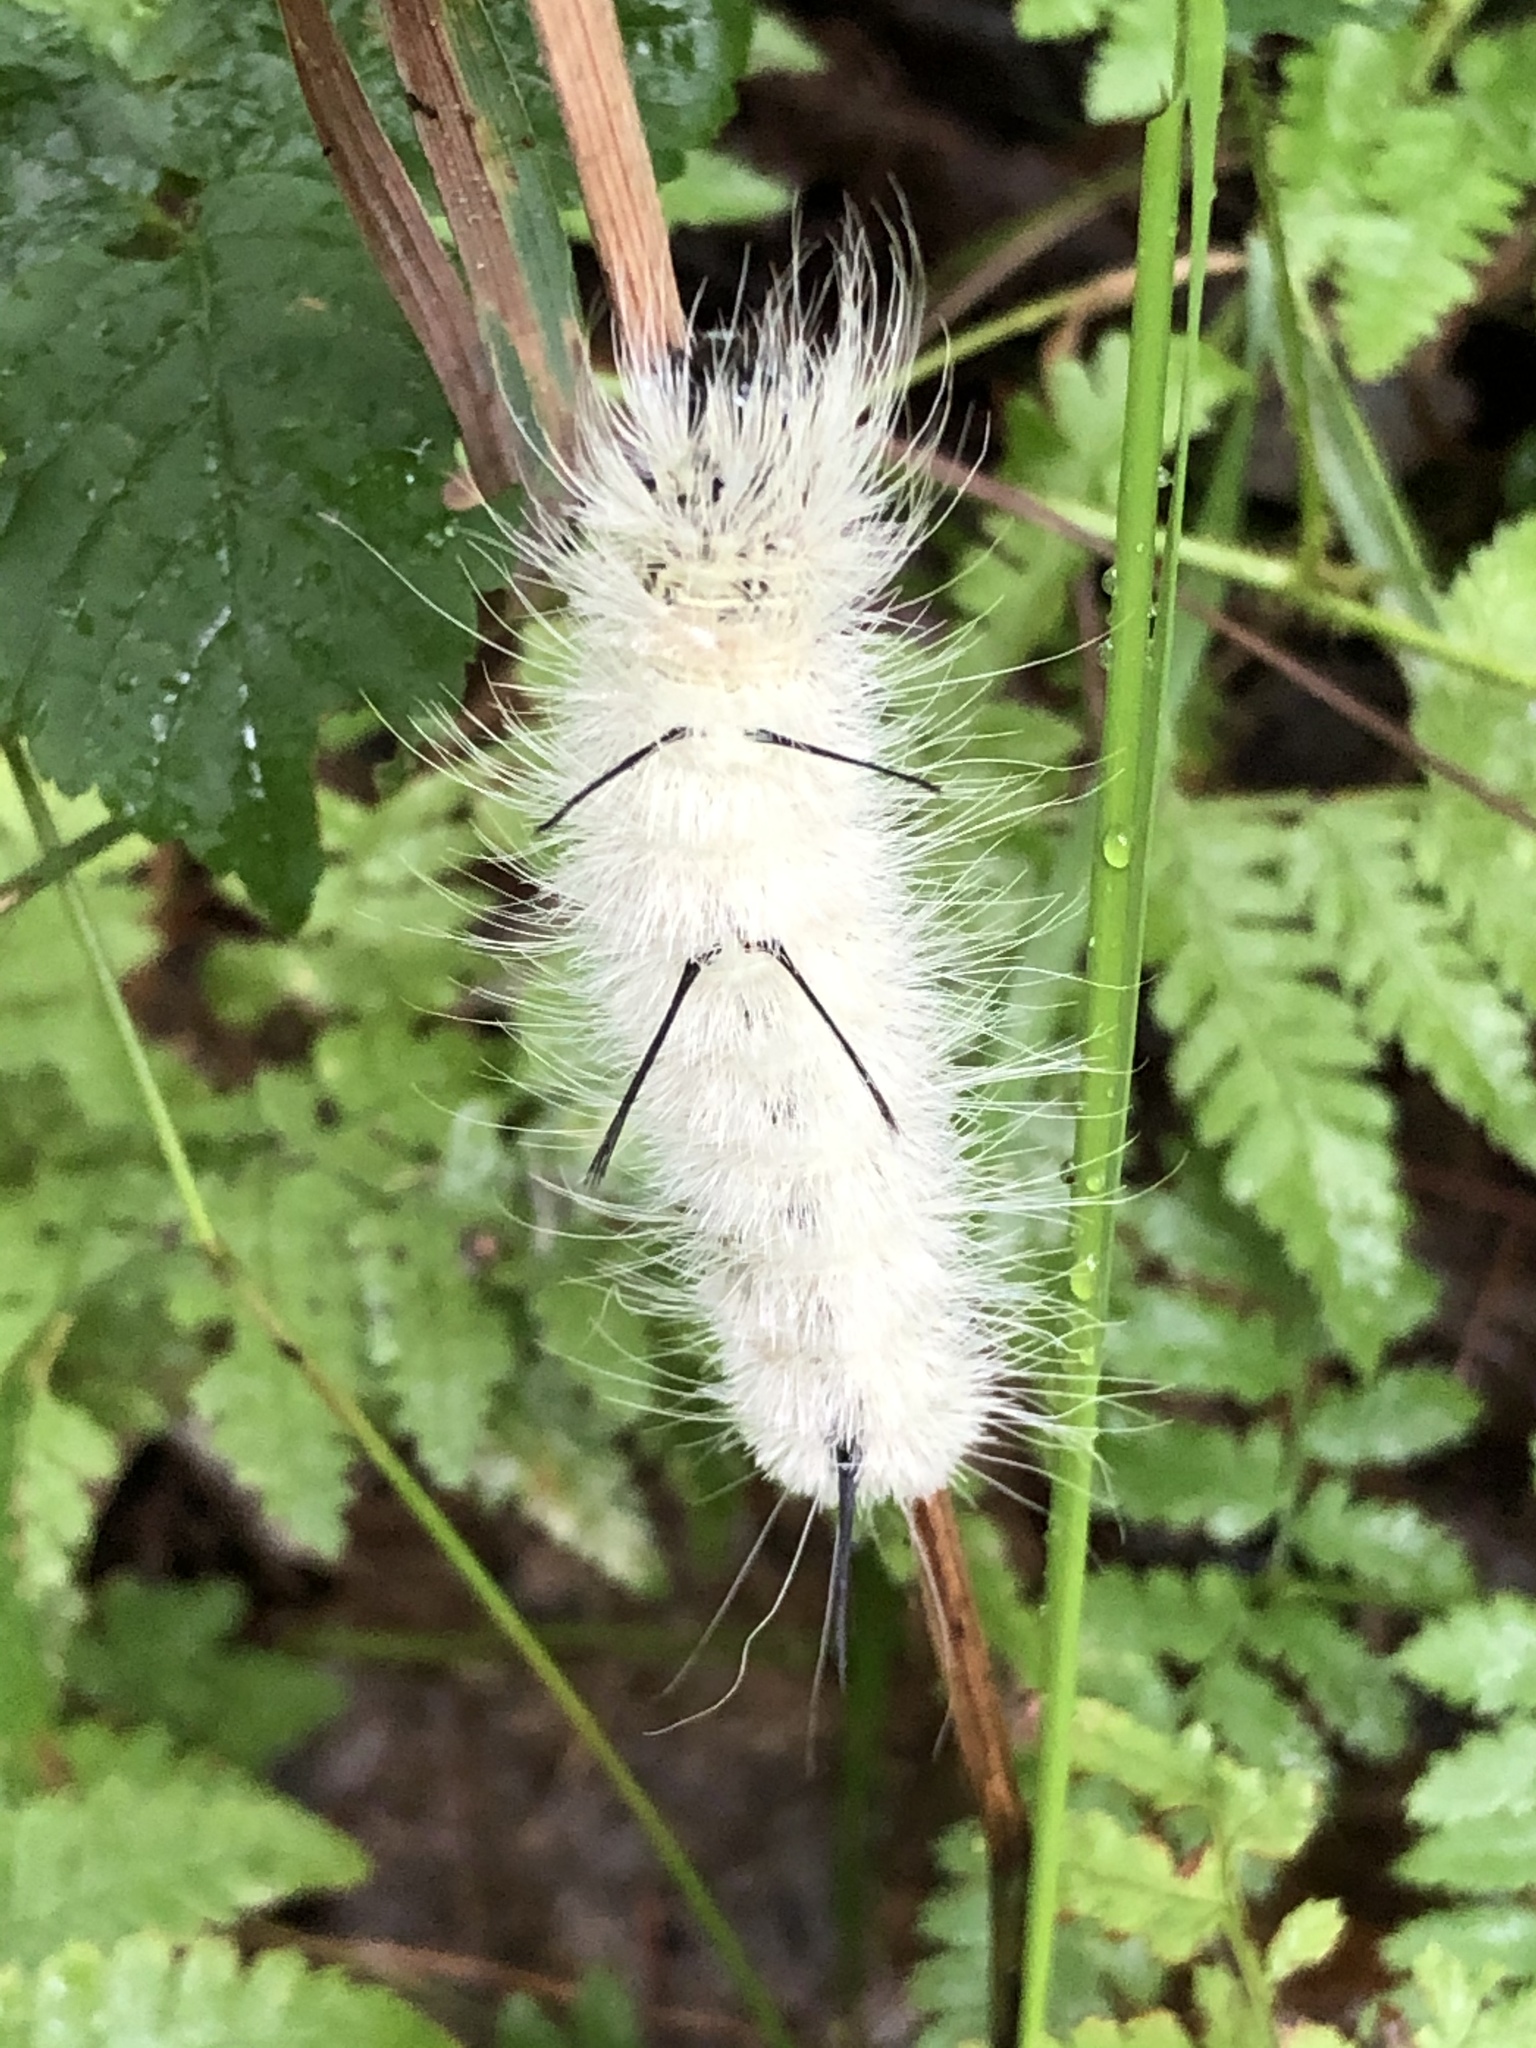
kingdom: Animalia
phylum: Arthropoda
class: Insecta
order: Lepidoptera
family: Noctuidae
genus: Acronicta
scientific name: Acronicta americana
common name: American dagger
